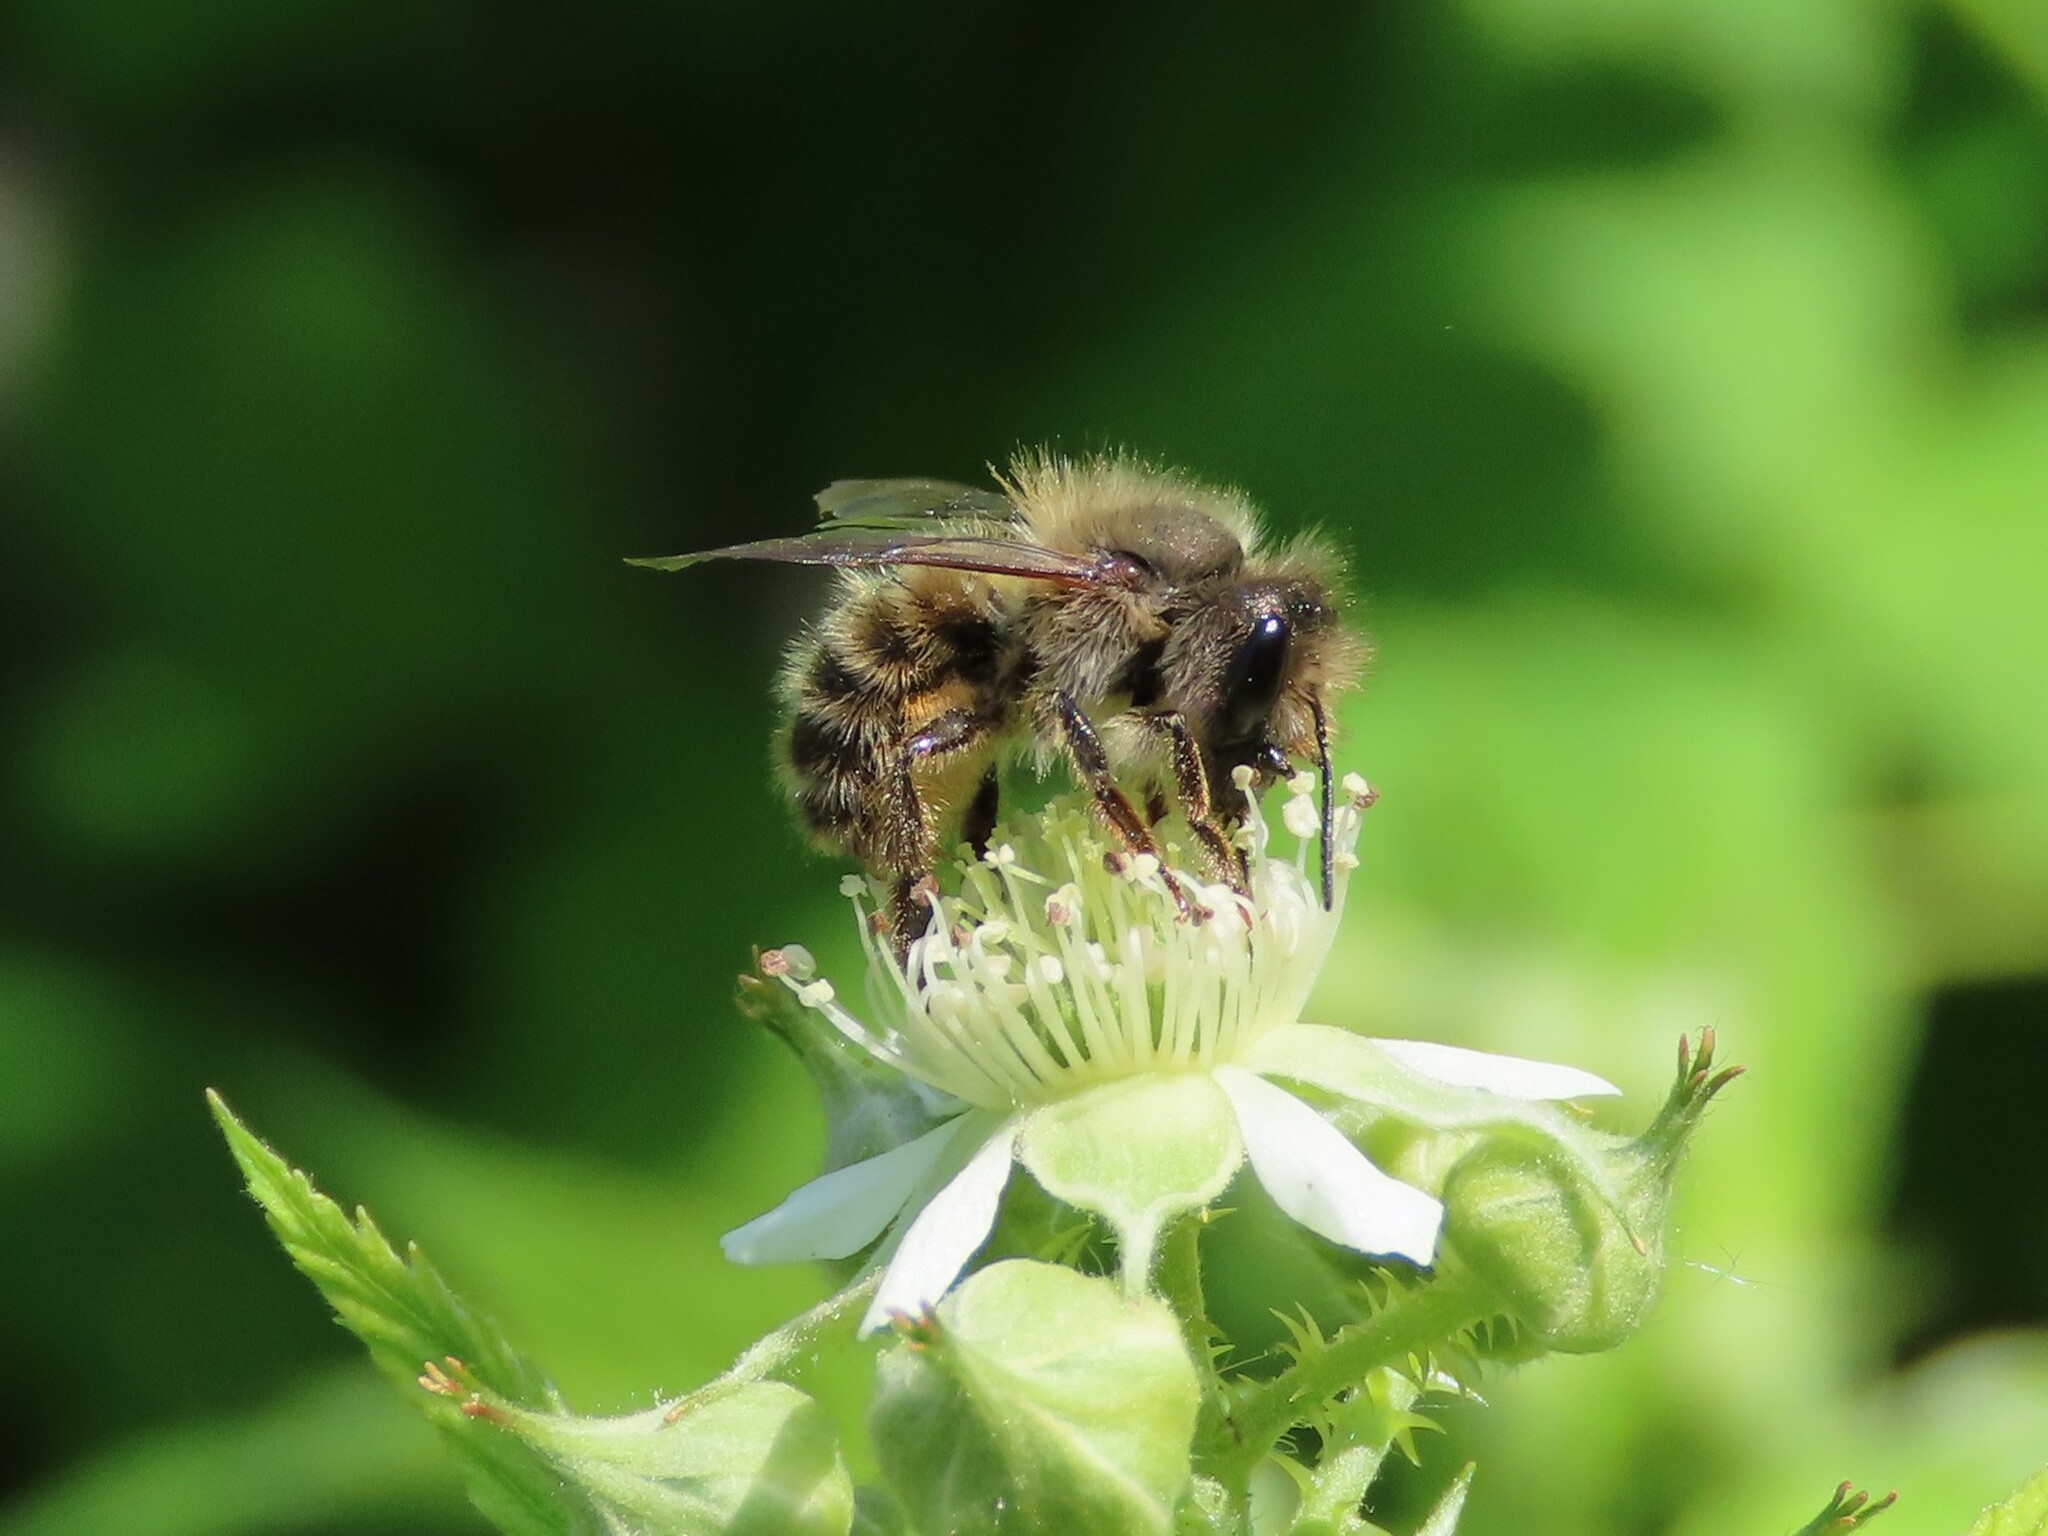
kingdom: Animalia
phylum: Arthropoda
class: Insecta
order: Hymenoptera
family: Megachilidae
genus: Osmia
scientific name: Osmia cornifrons
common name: Horn-faced bee
